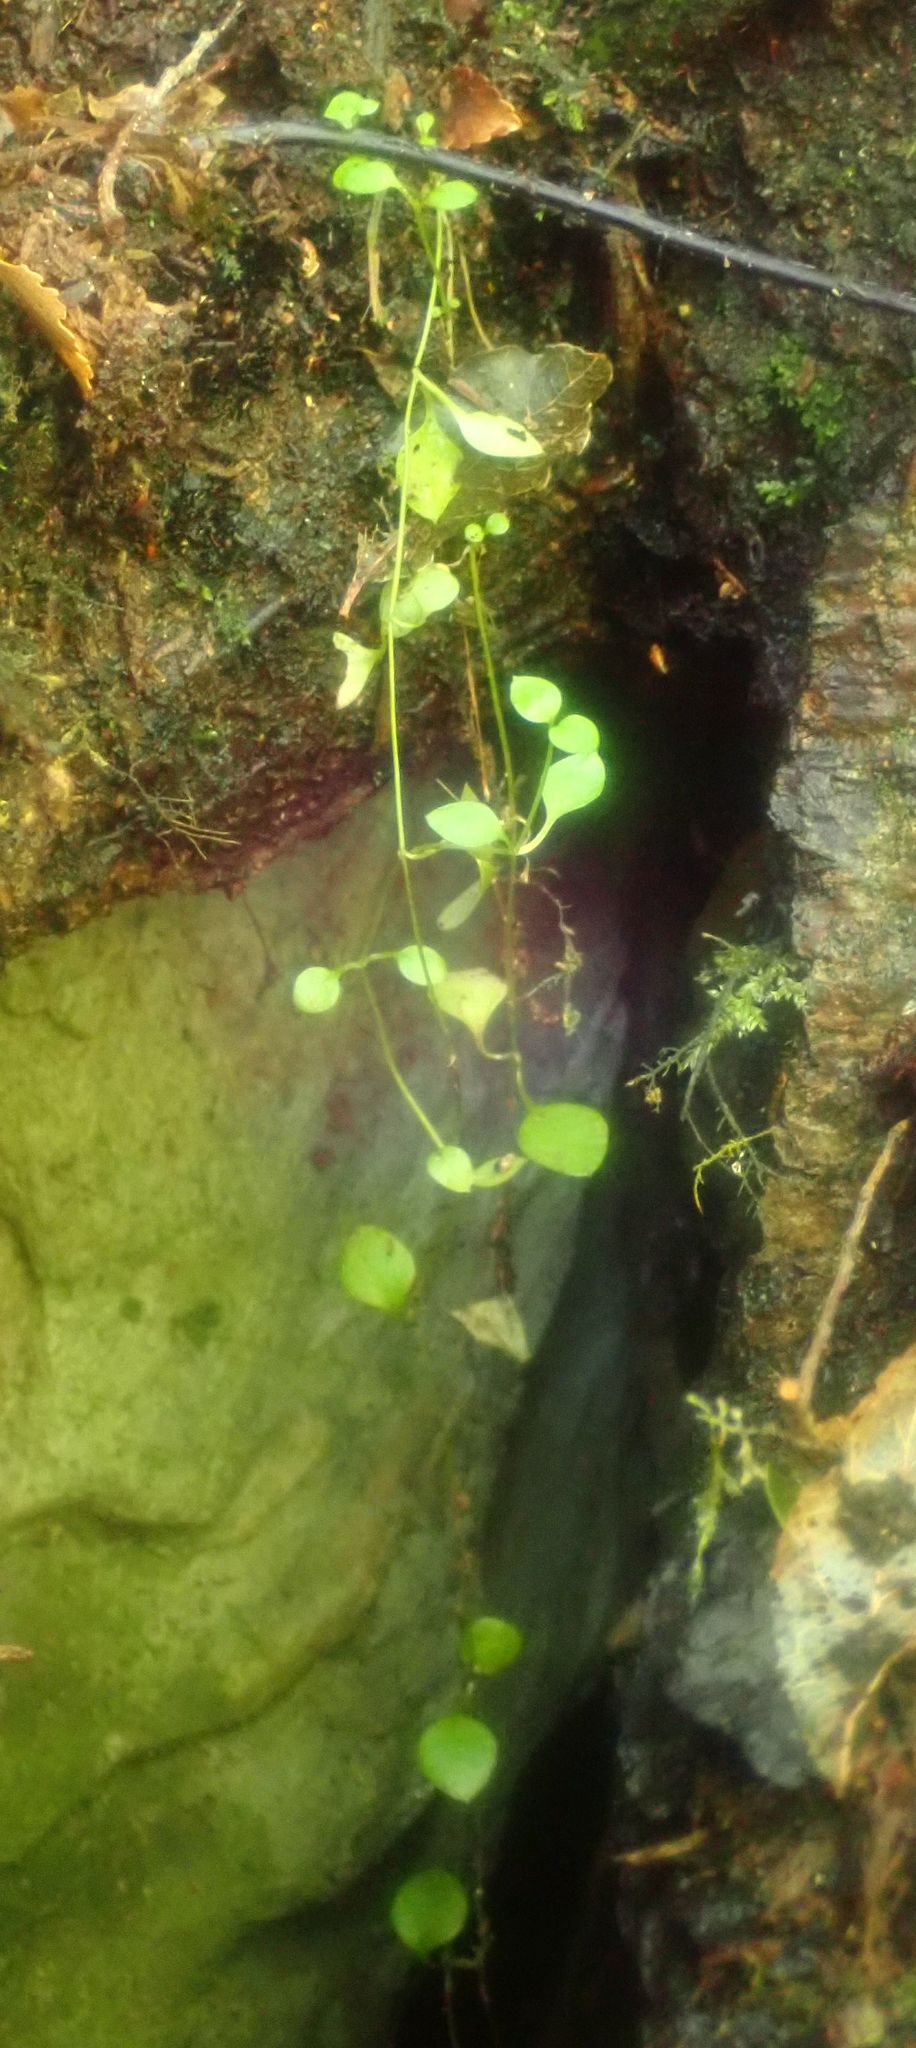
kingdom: Plantae
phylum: Tracheophyta
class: Magnoliopsida
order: Caryophyllales
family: Caryophyllaceae
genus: Stellaria
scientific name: Stellaria parviflora
